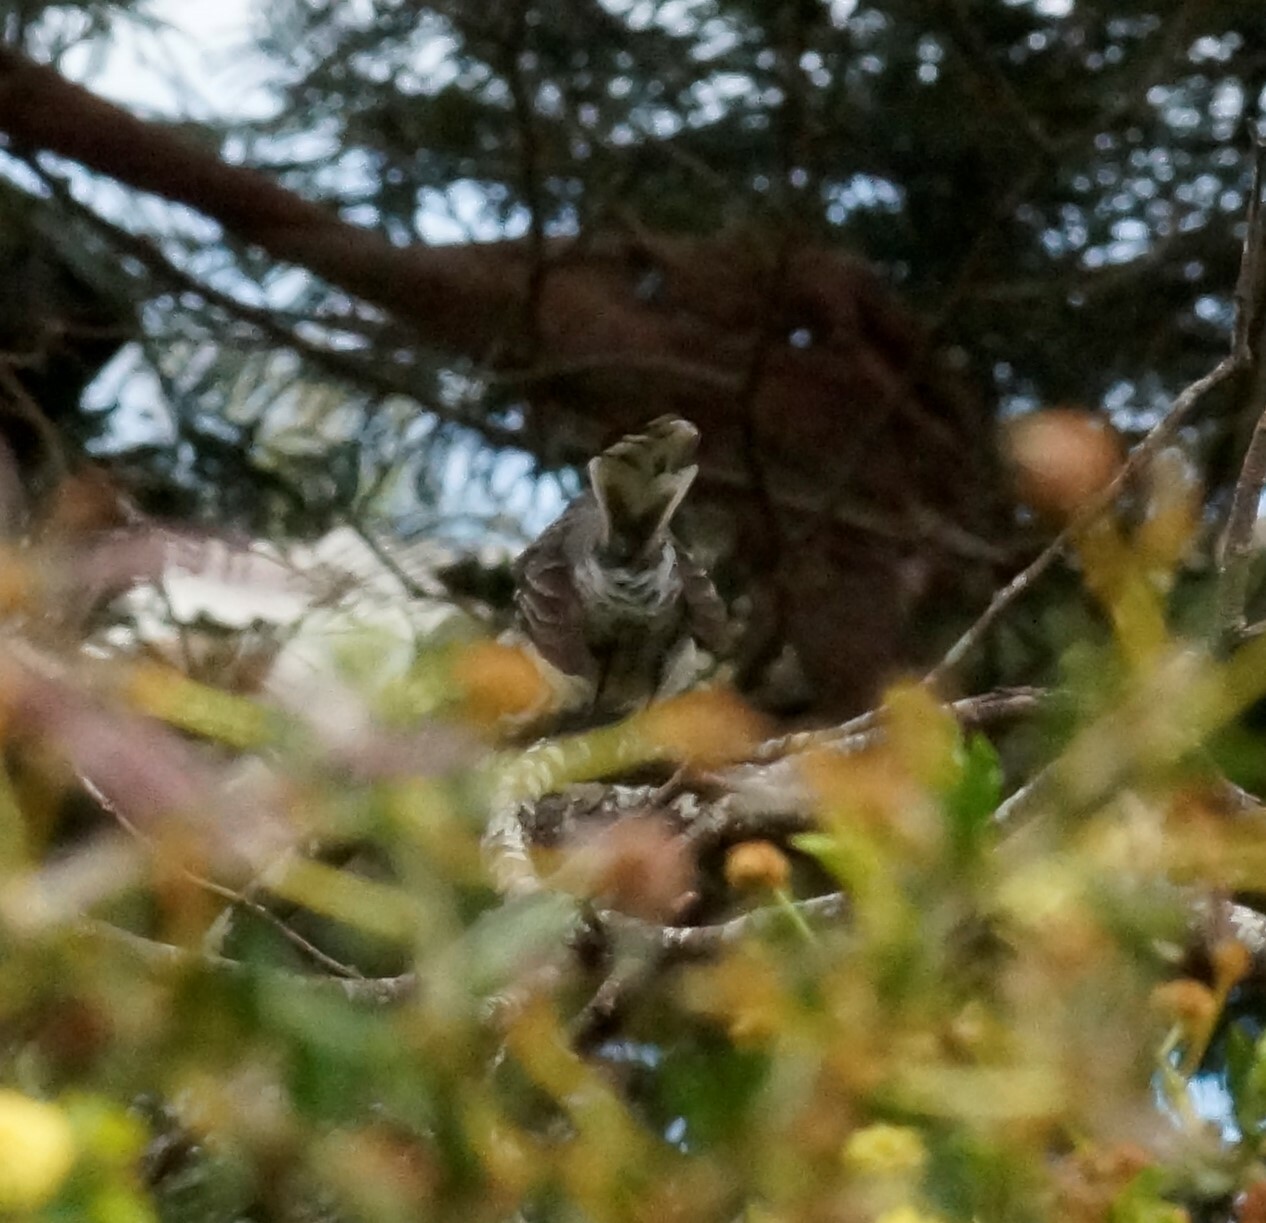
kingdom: Animalia
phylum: Chordata
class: Aves
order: Passeriformes
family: Rhipiduridae
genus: Rhipidura
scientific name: Rhipidura albiscapa
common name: Grey fantail
